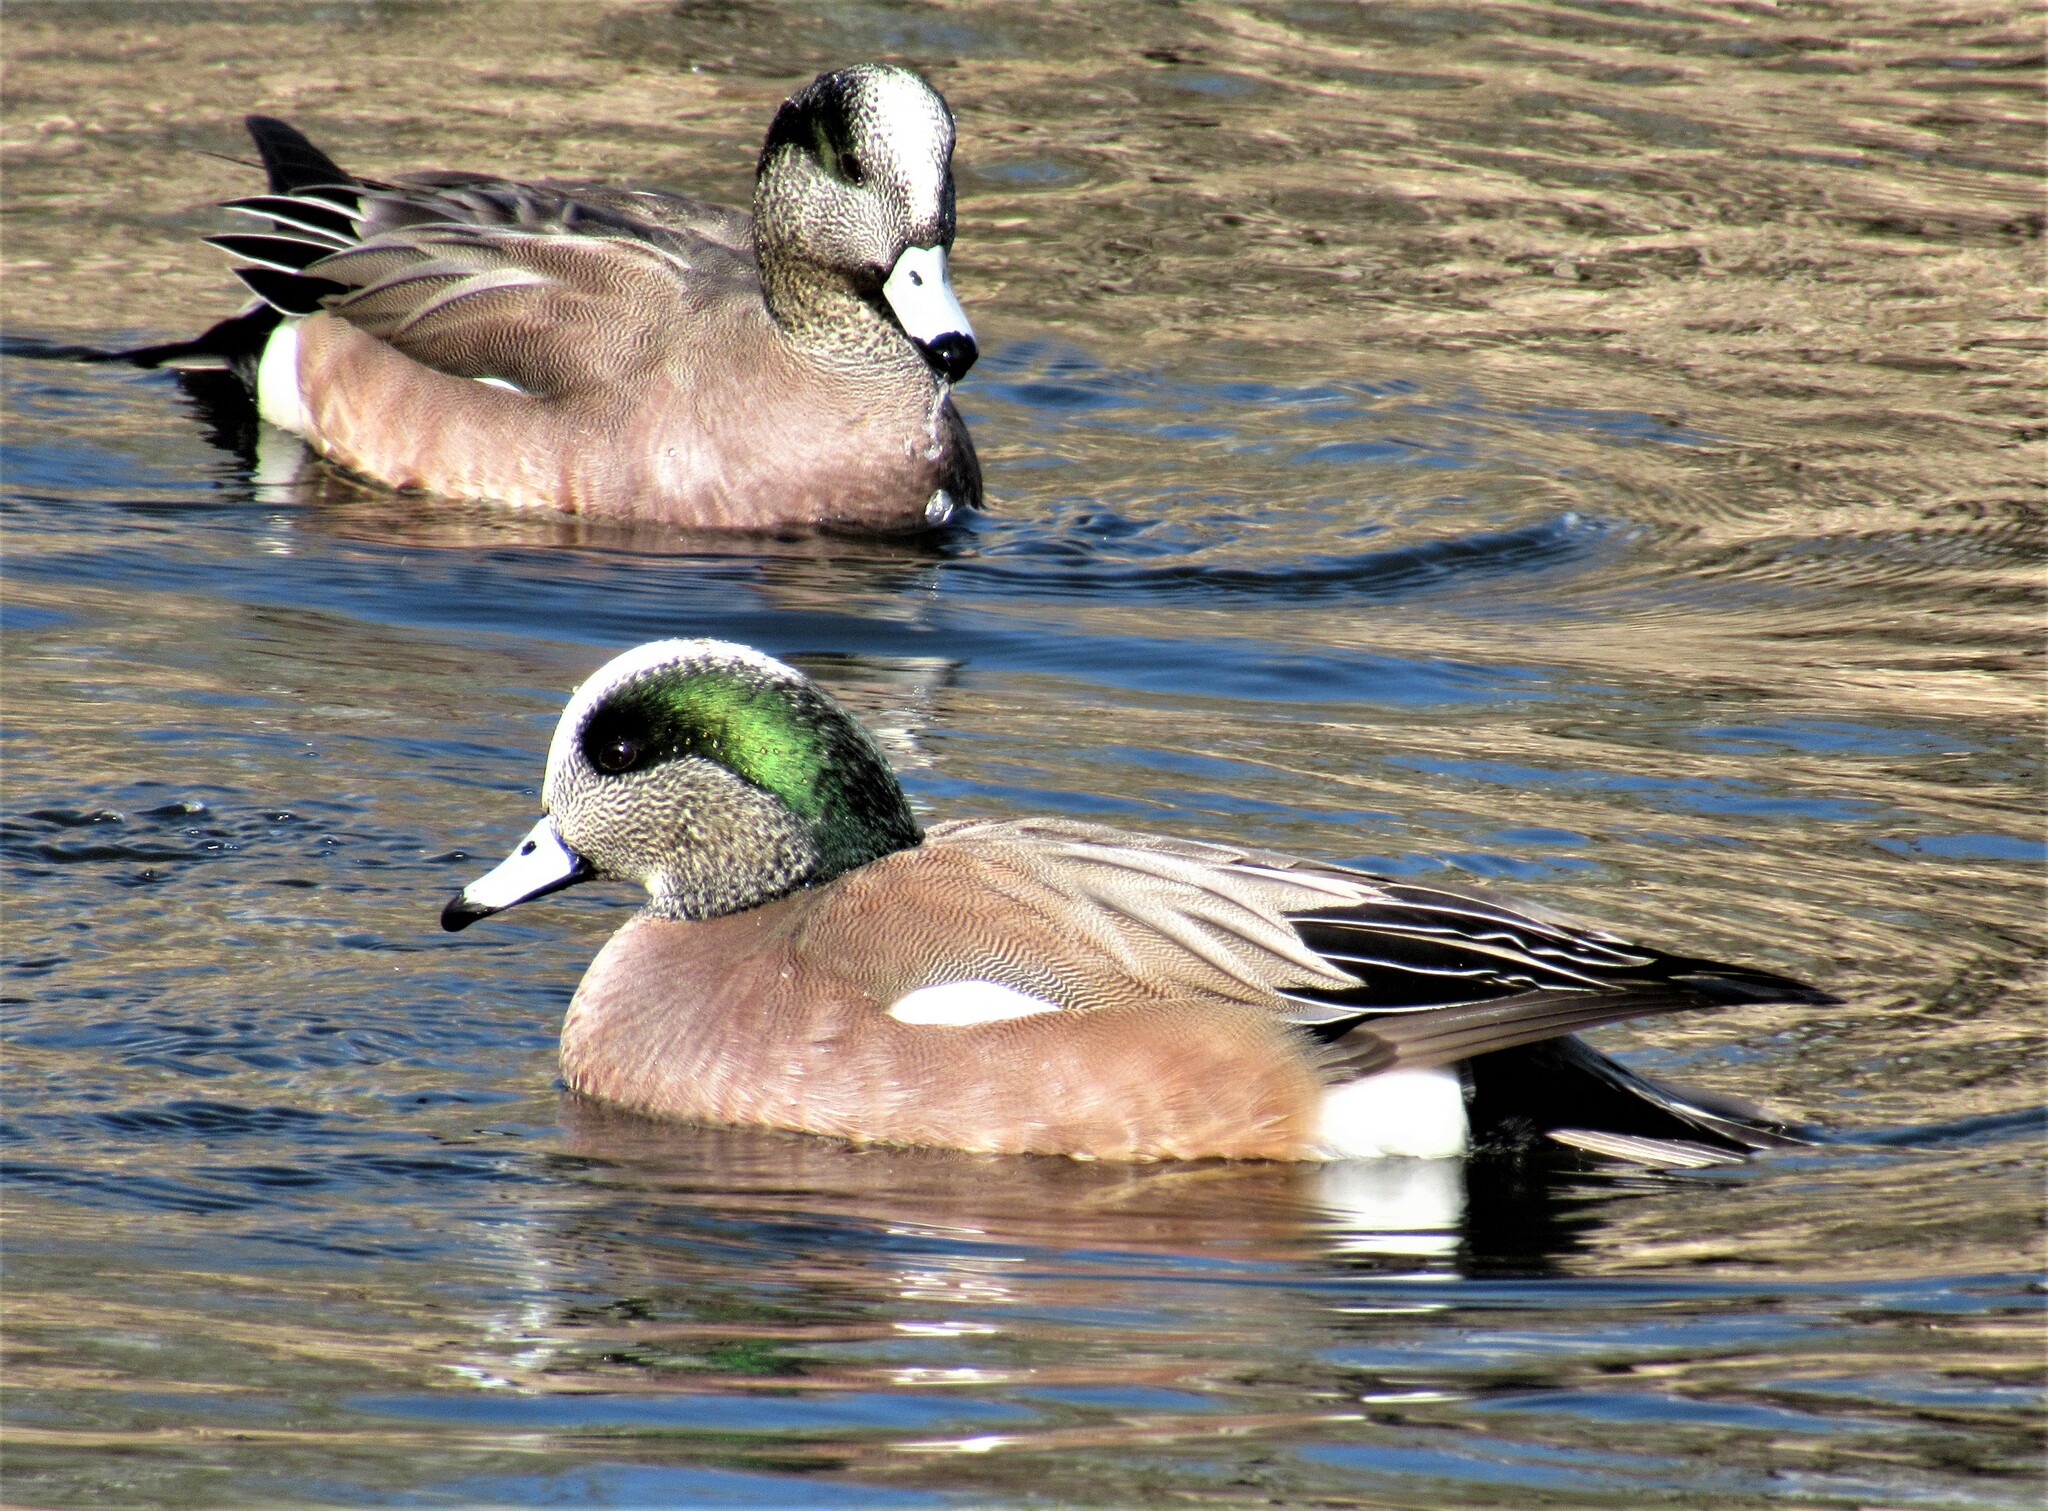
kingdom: Animalia
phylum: Chordata
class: Aves
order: Anseriformes
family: Anatidae
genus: Mareca
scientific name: Mareca americana
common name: American wigeon
